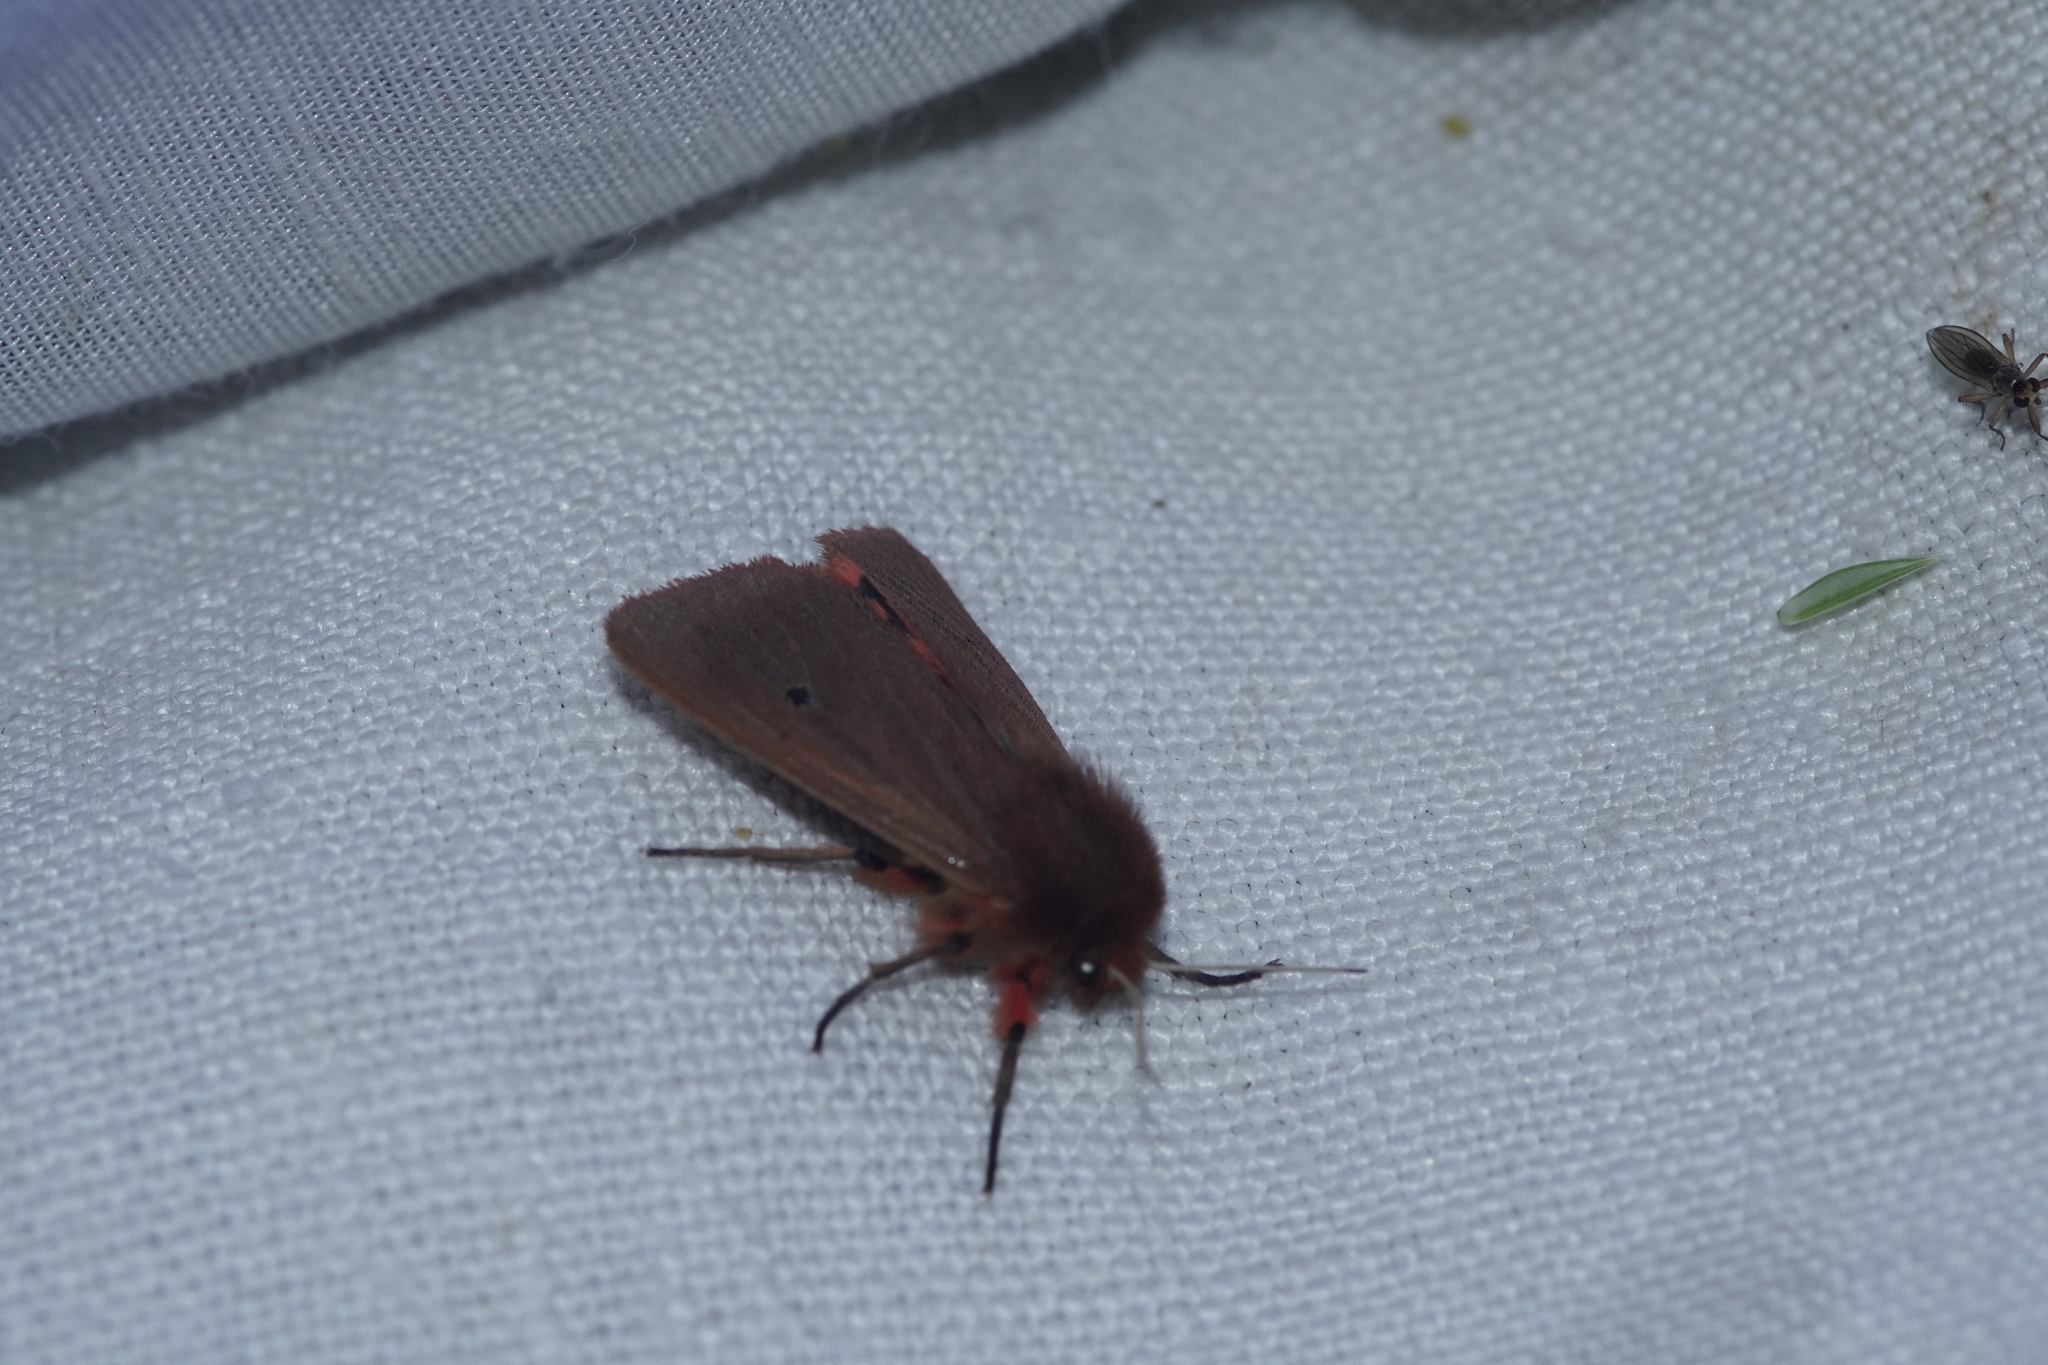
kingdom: Animalia
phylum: Arthropoda
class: Insecta
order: Lepidoptera
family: Erebidae
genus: Phragmatobia
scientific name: Phragmatobia fuliginosa
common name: Ruby tiger
